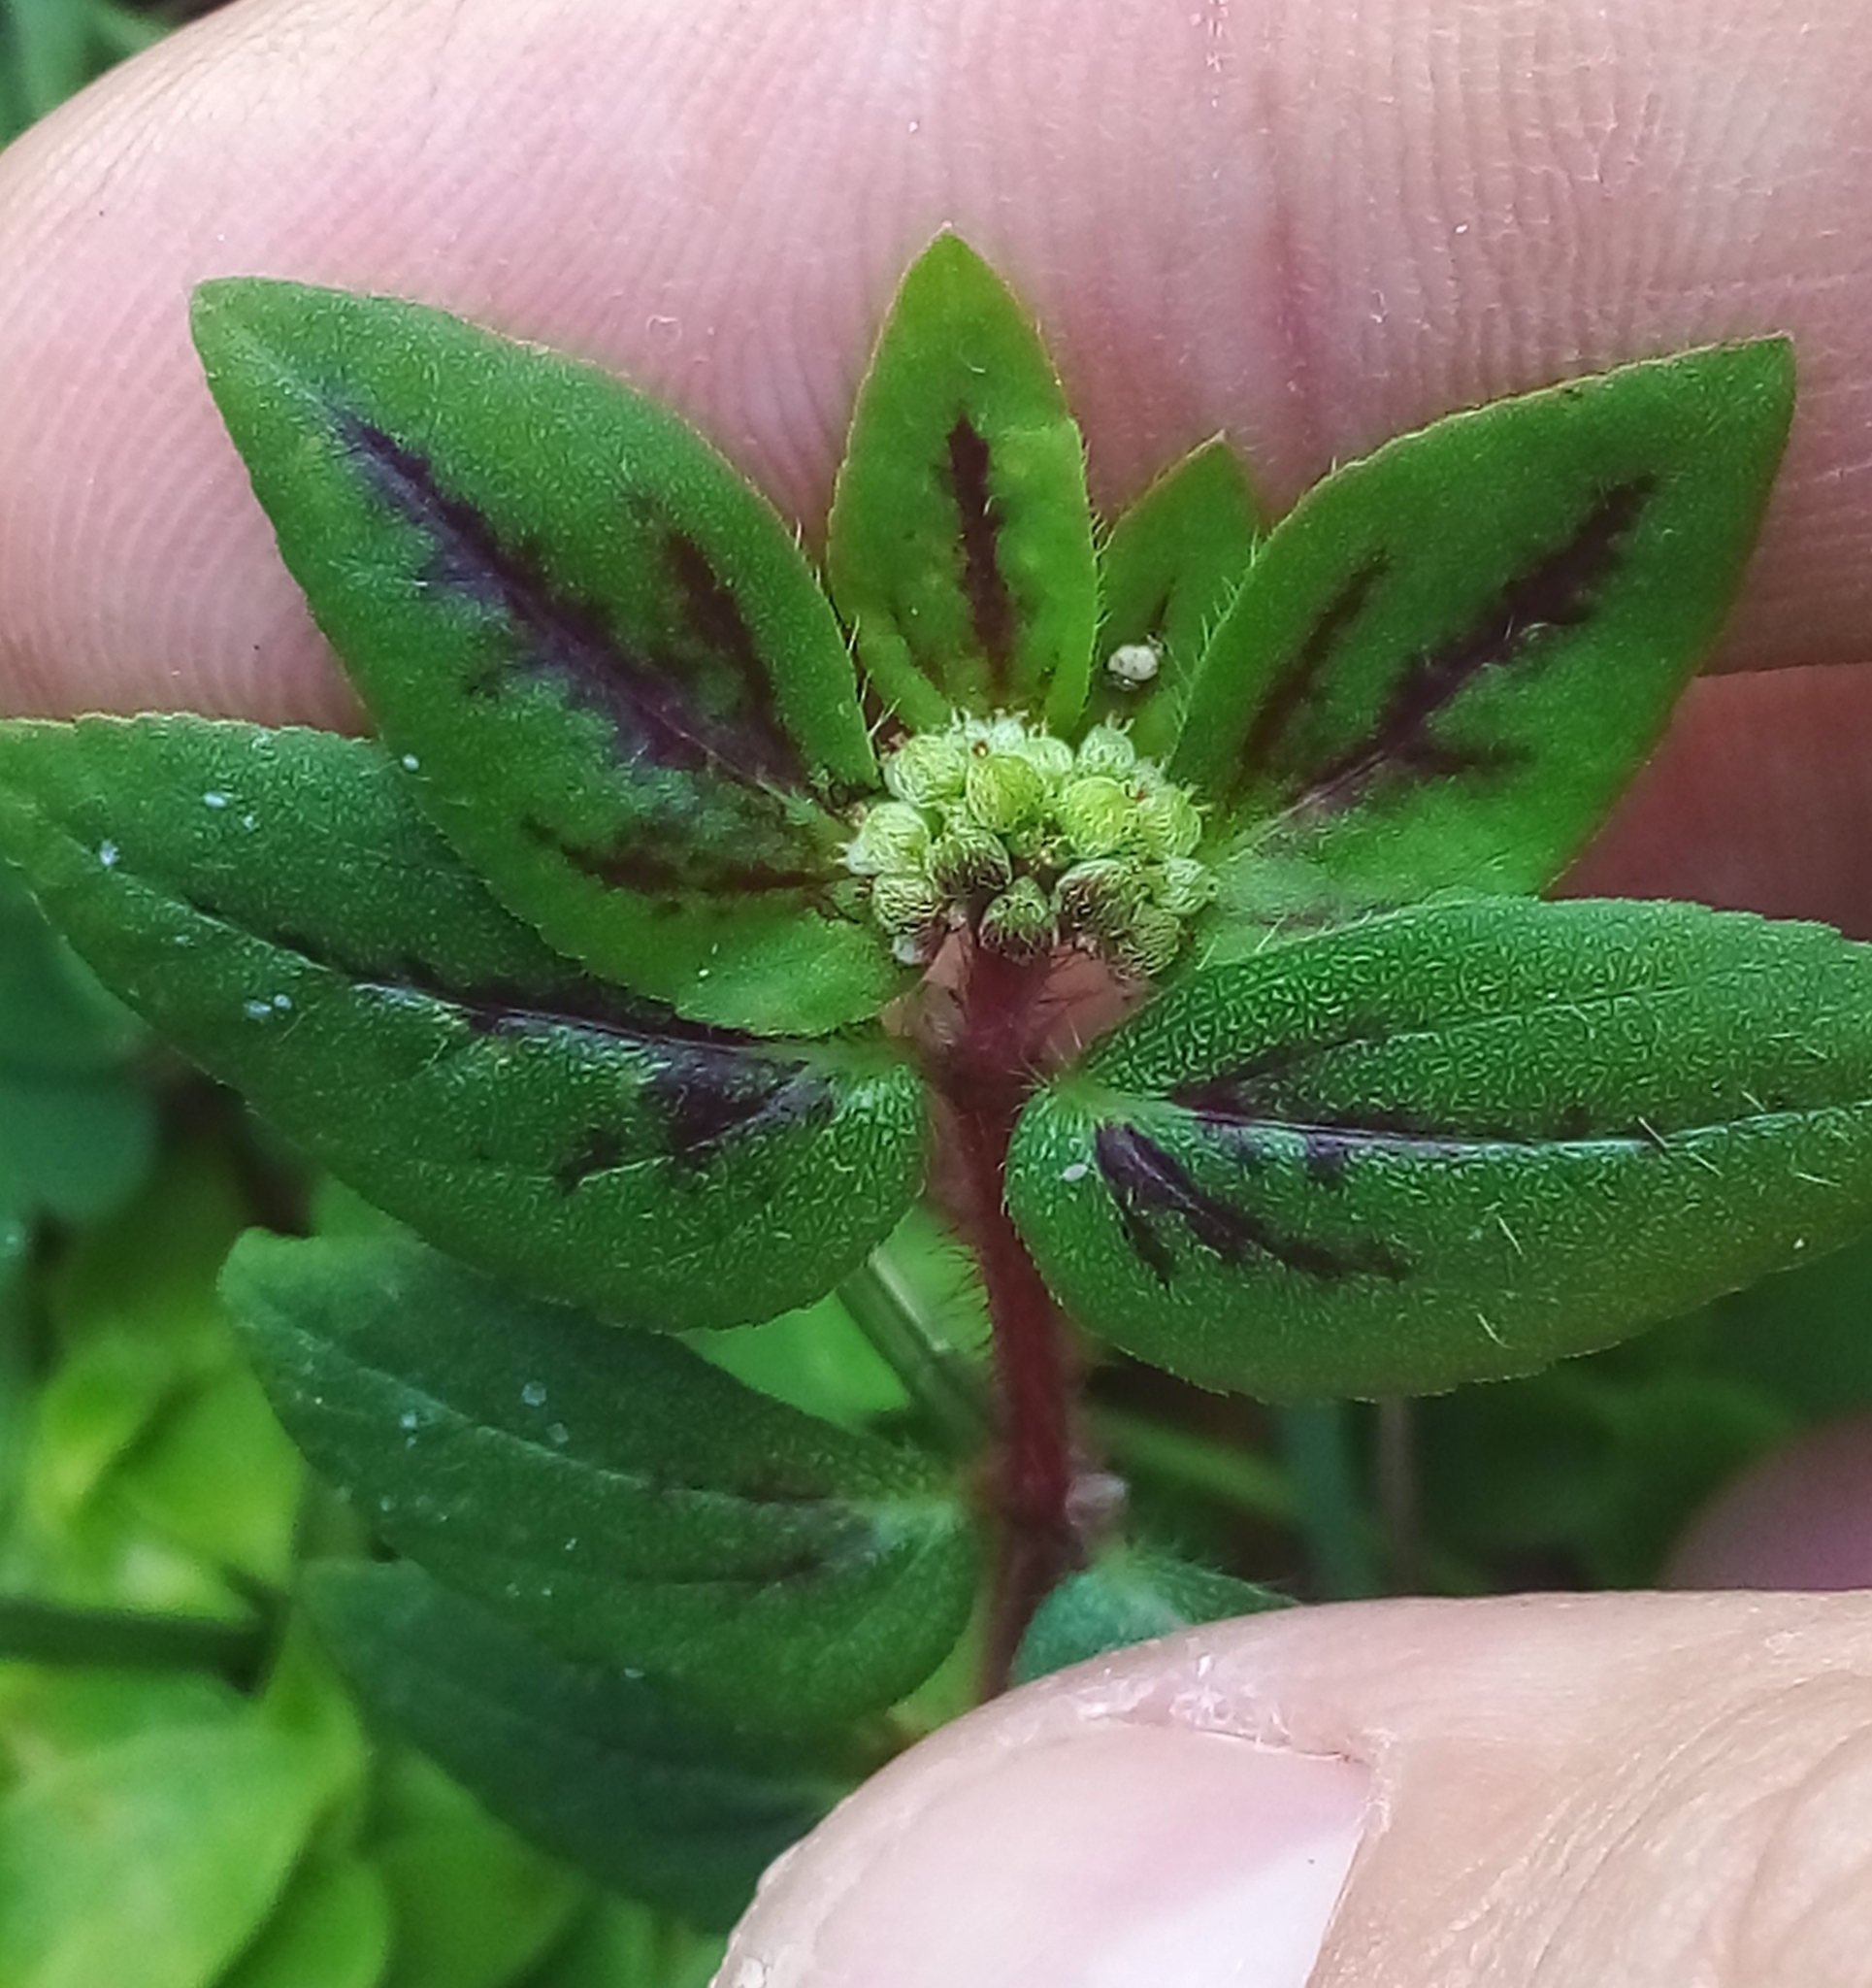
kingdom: Plantae
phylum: Tracheophyta
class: Magnoliopsida
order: Malpighiales
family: Euphorbiaceae
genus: Euphorbia
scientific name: Euphorbia ophthalmica
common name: Florida hammock sandmat
